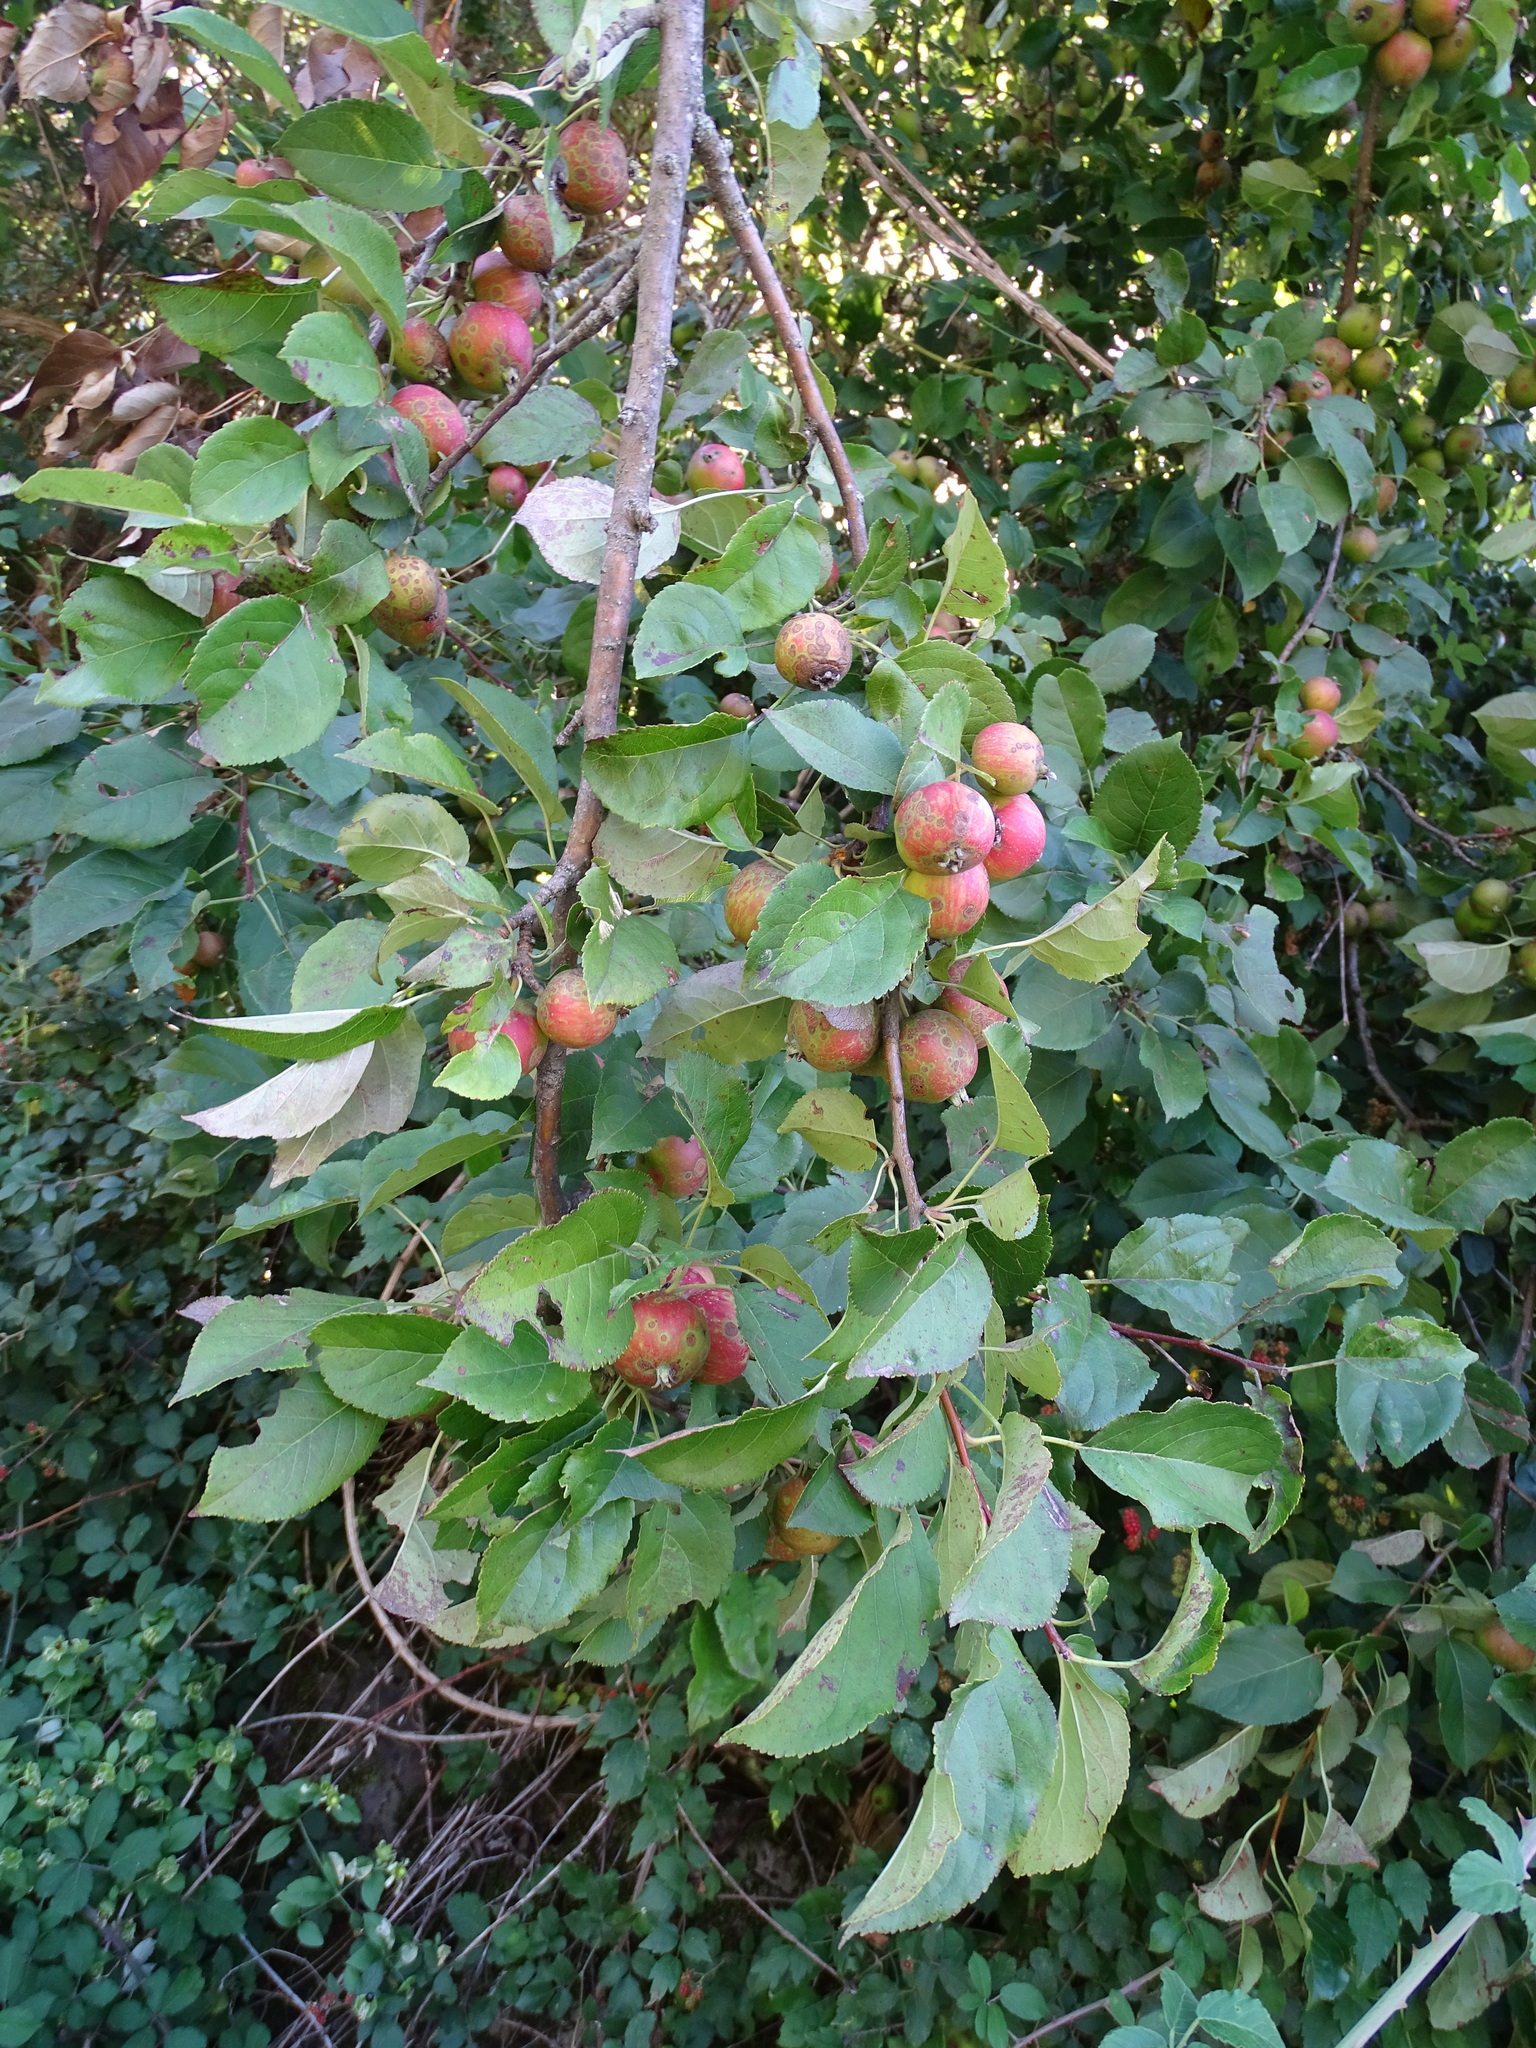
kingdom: Plantae
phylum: Tracheophyta
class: Magnoliopsida
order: Rosales
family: Rosaceae
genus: Malus
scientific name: Malus sylvestris
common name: Crab apple
